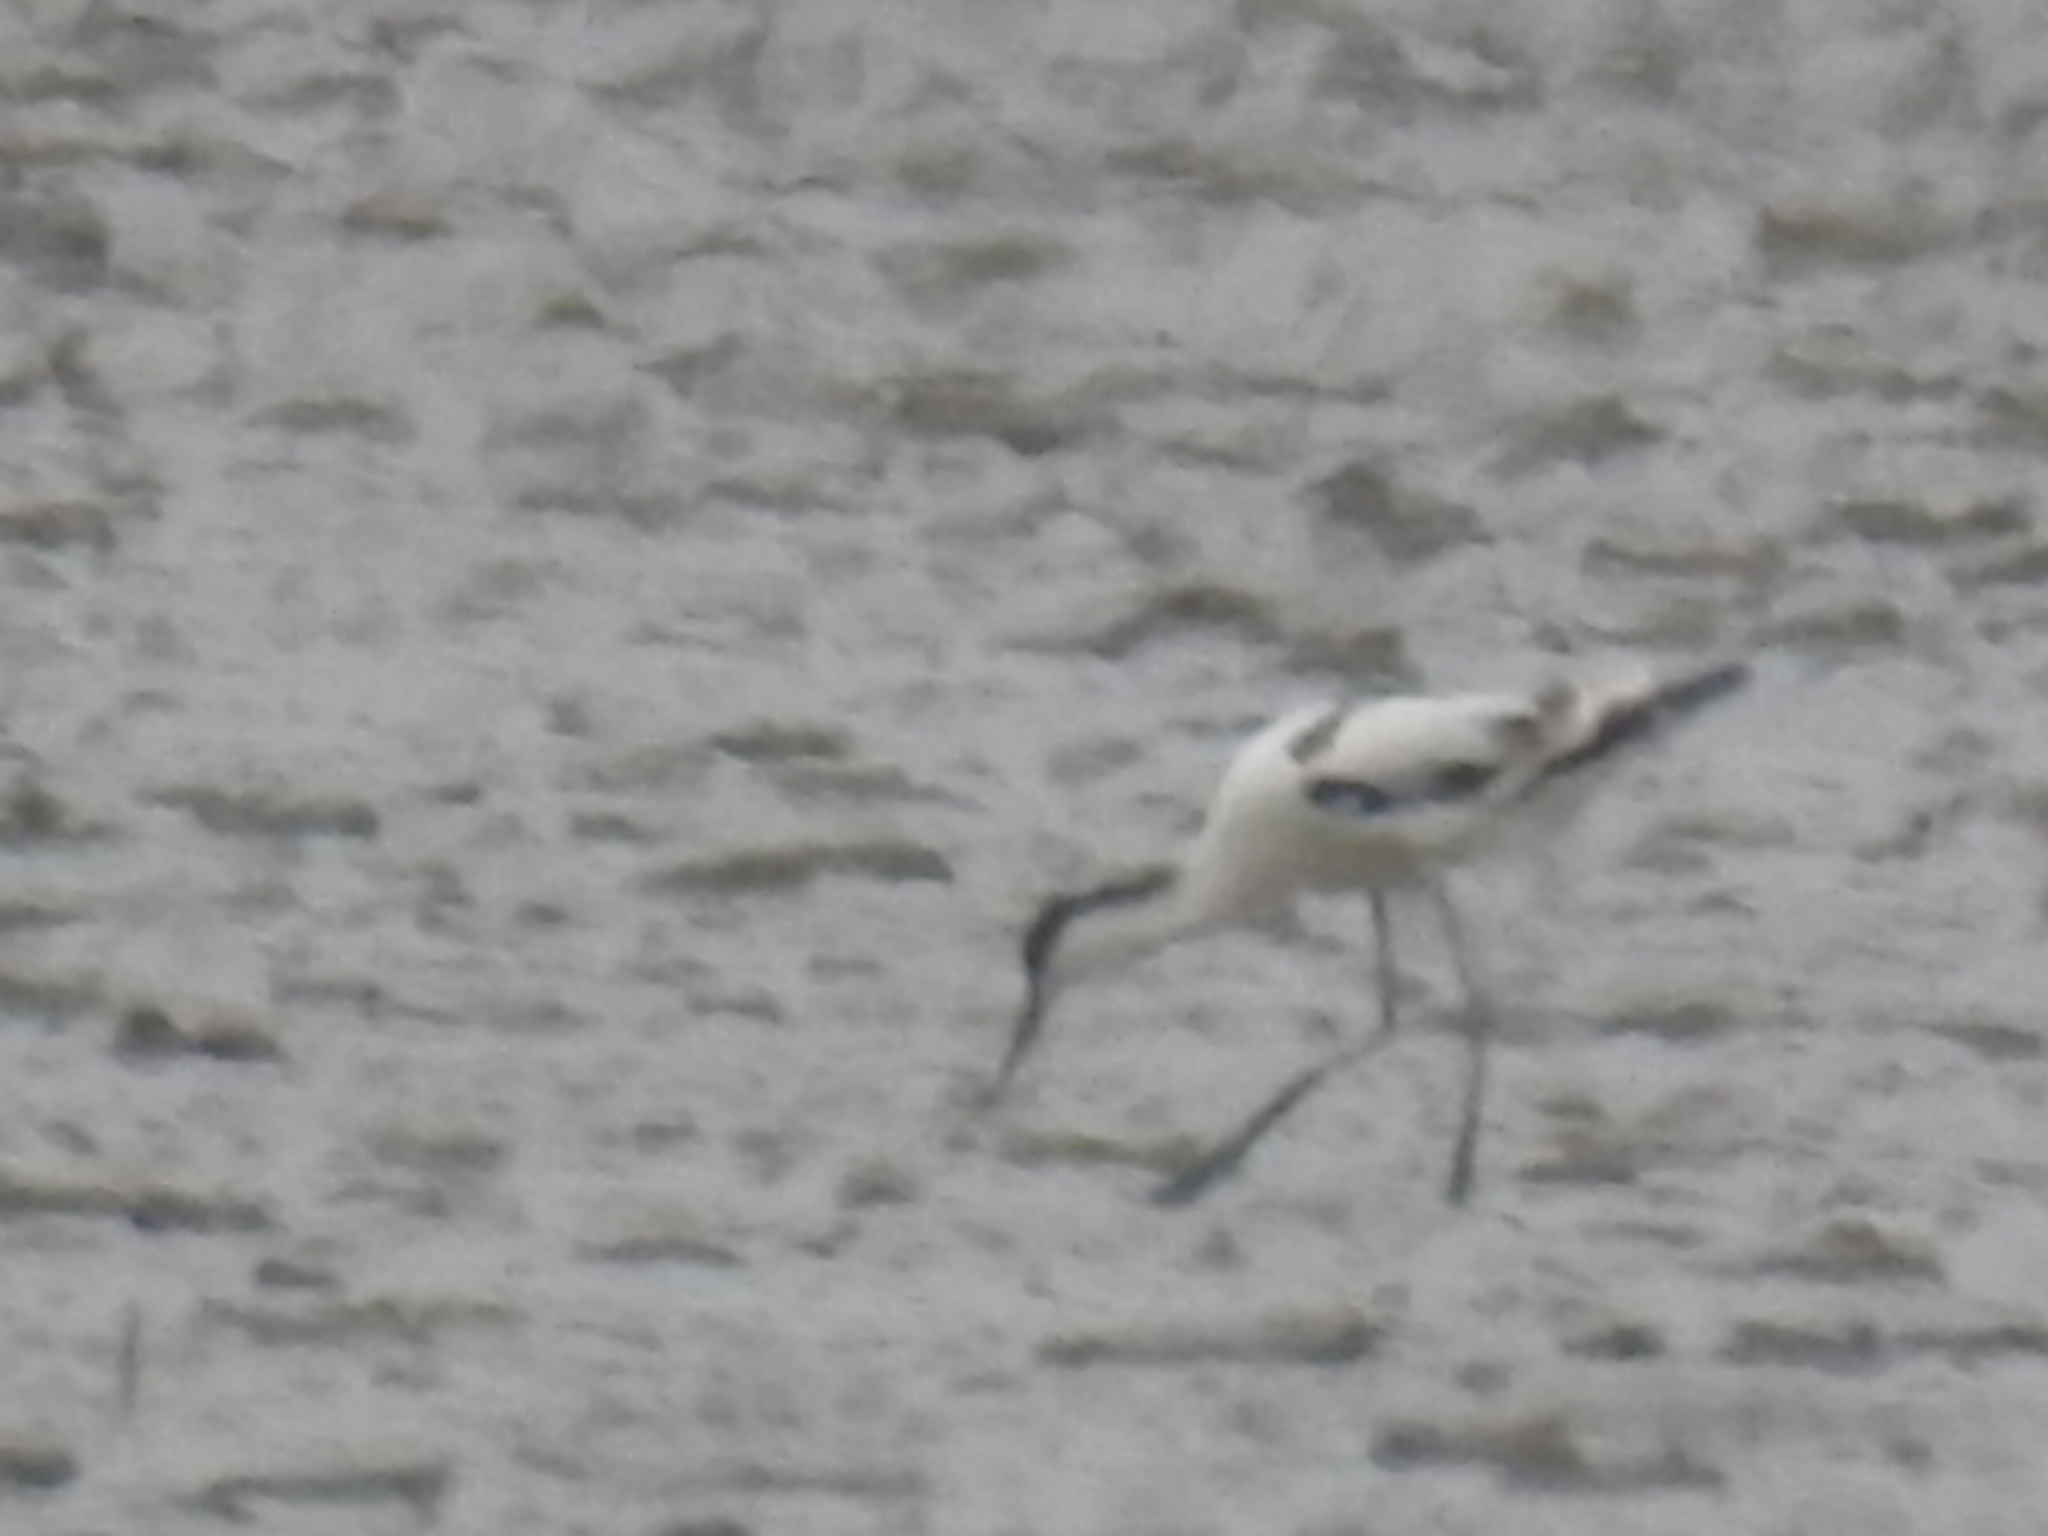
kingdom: Animalia
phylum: Chordata
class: Aves
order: Charadriiformes
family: Recurvirostridae
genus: Recurvirostra
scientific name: Recurvirostra avosetta
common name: Pied avocet
